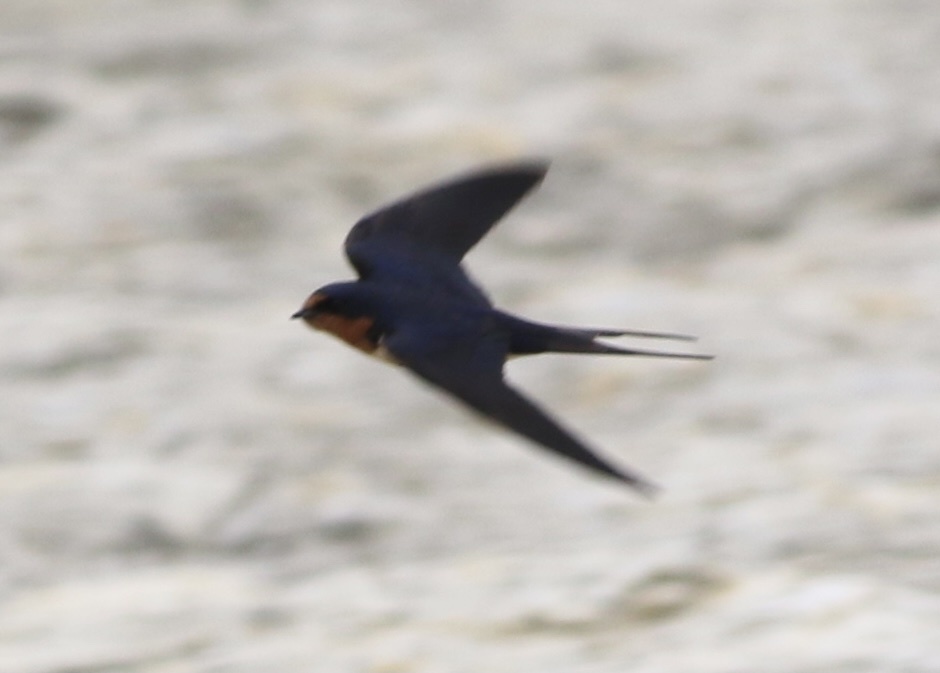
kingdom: Animalia
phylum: Chordata
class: Aves
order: Passeriformes
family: Hirundinidae
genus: Hirundo
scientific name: Hirundo rustica
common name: Barn swallow
